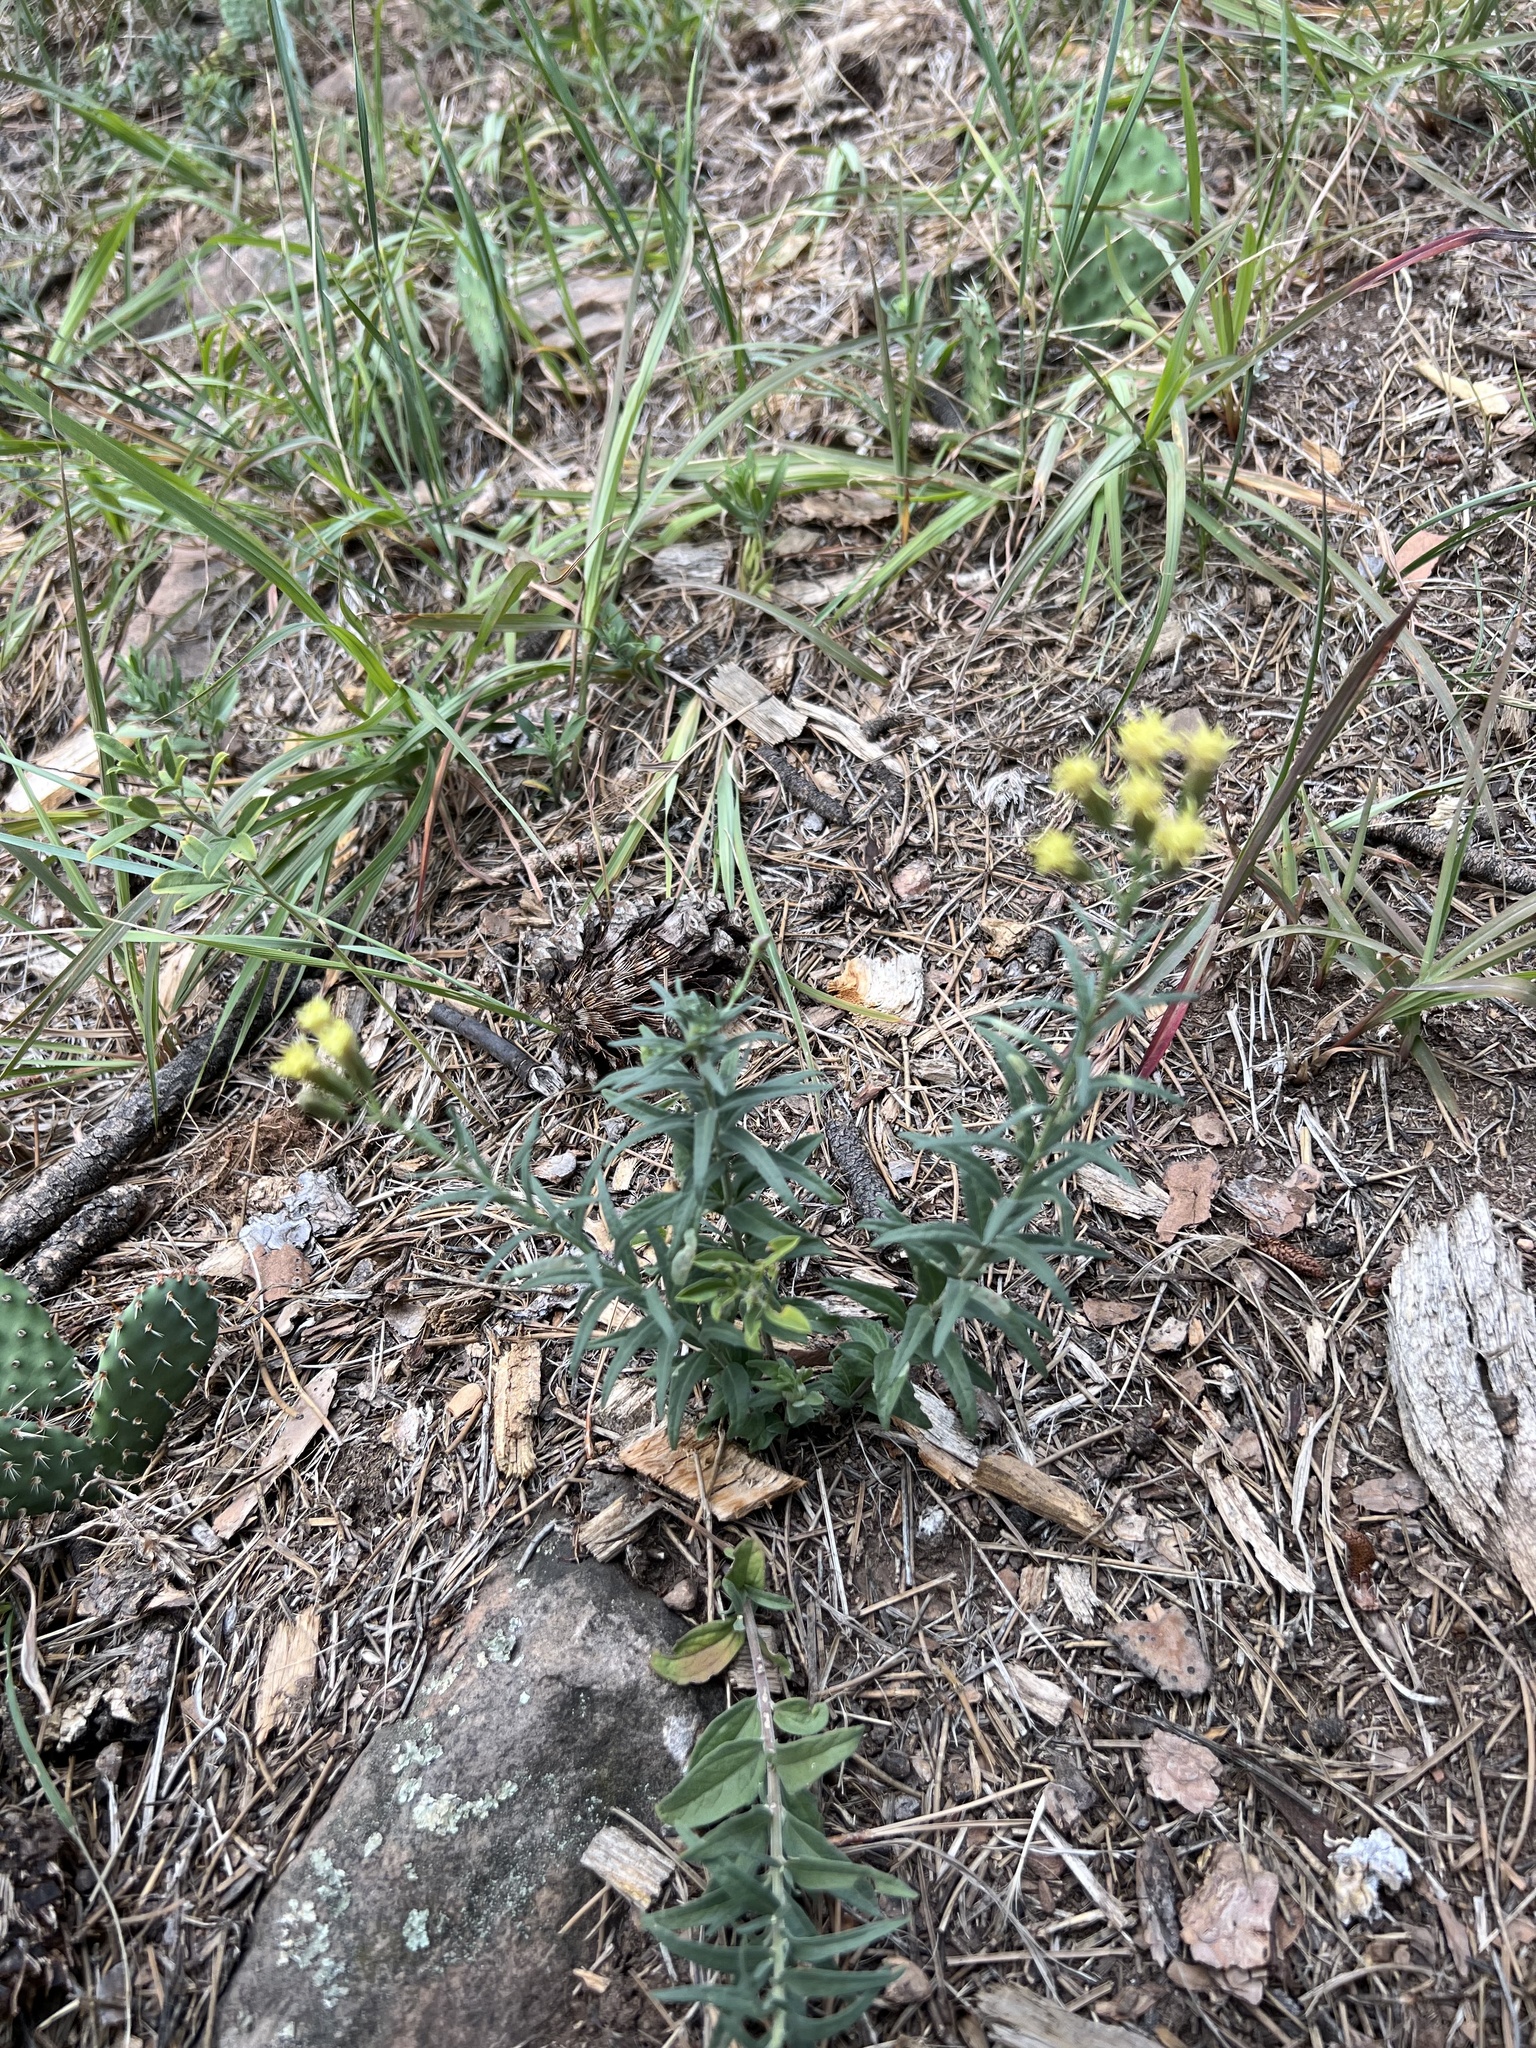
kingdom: Plantae
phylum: Tracheophyta
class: Magnoliopsida
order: Asterales
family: Asteraceae
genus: Brickellia
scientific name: Brickellia eupatorioides
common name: False boneset
